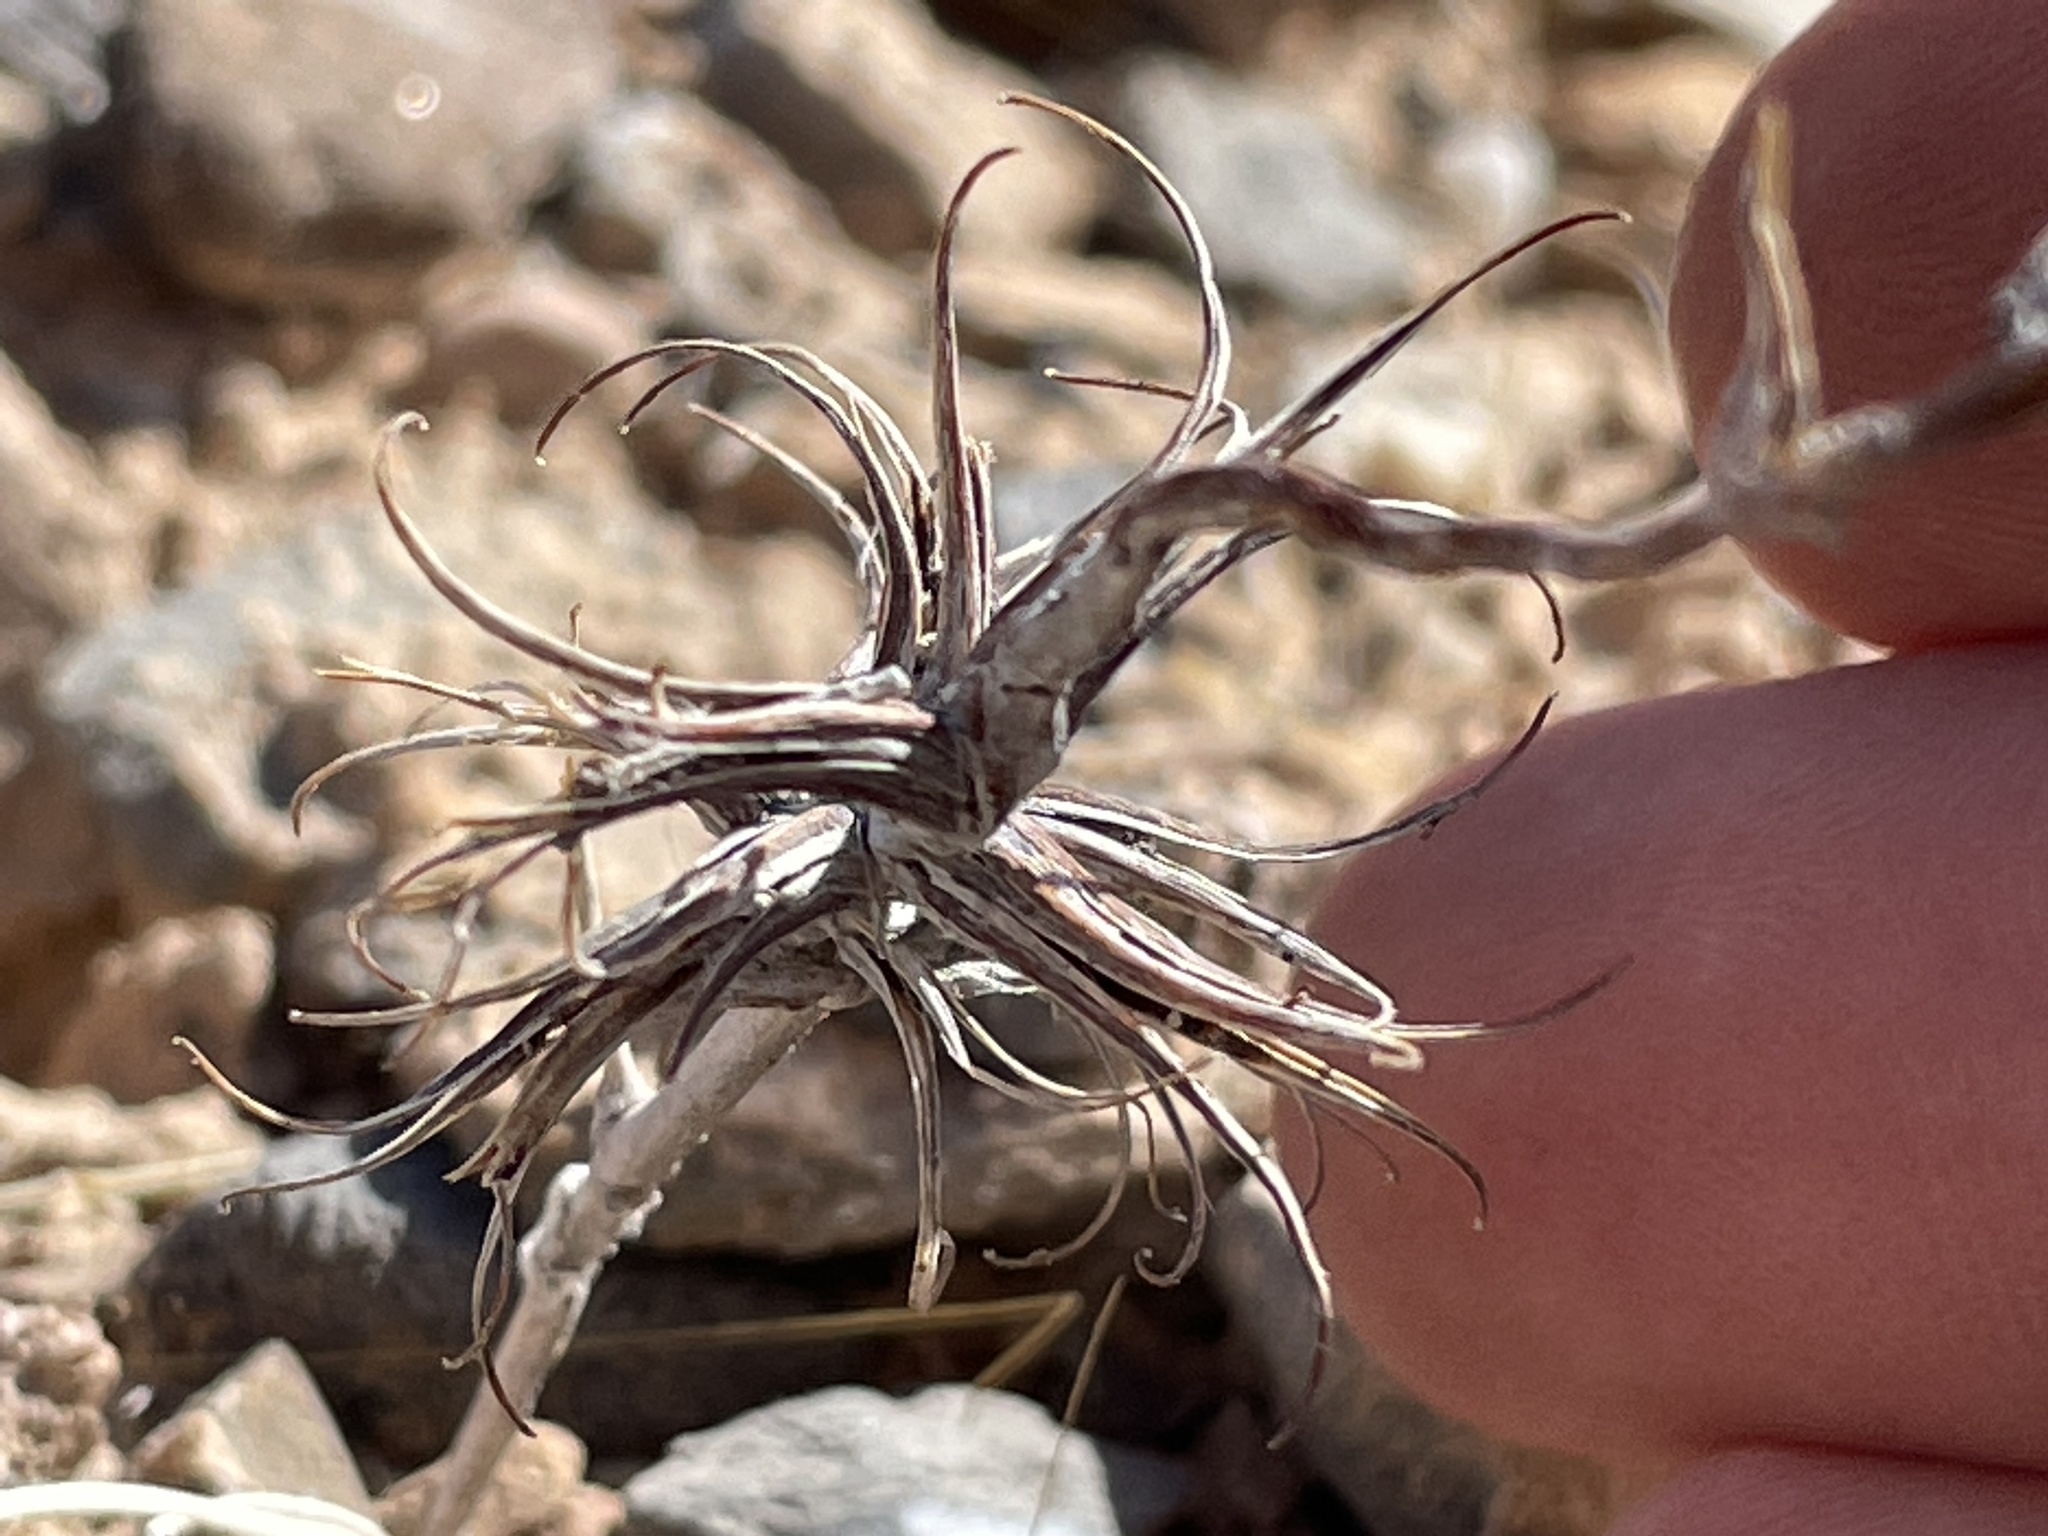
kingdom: Plantae
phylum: Tracheophyta
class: Magnoliopsida
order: Myrtales
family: Onagraceae
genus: Eremothera
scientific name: Eremothera boothii
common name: Booth's evening primrose
